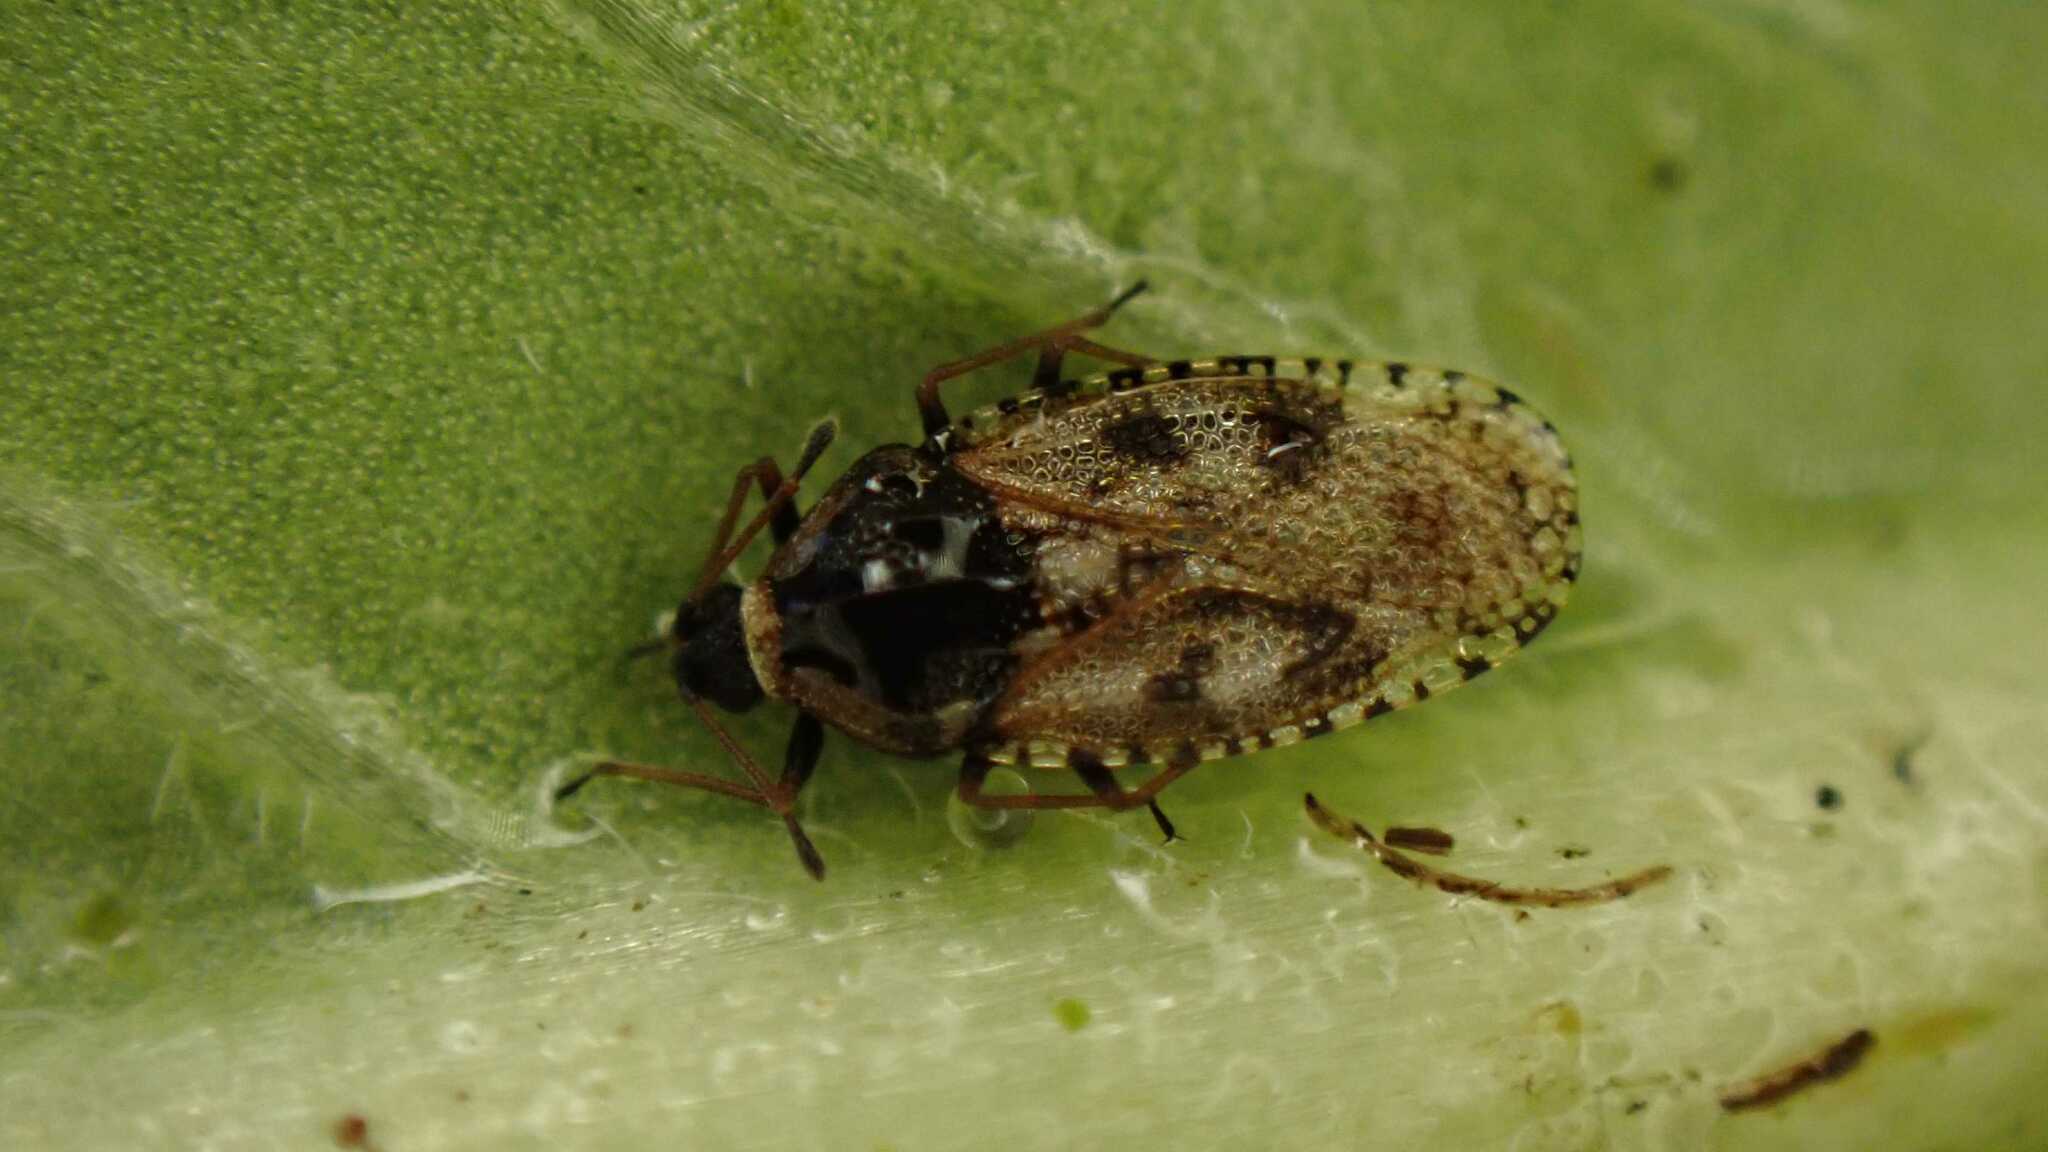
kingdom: Animalia
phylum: Arthropoda
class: Insecta
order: Hemiptera
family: Tingidae
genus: Dictyla
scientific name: Dictyla echii
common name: Lace bug
